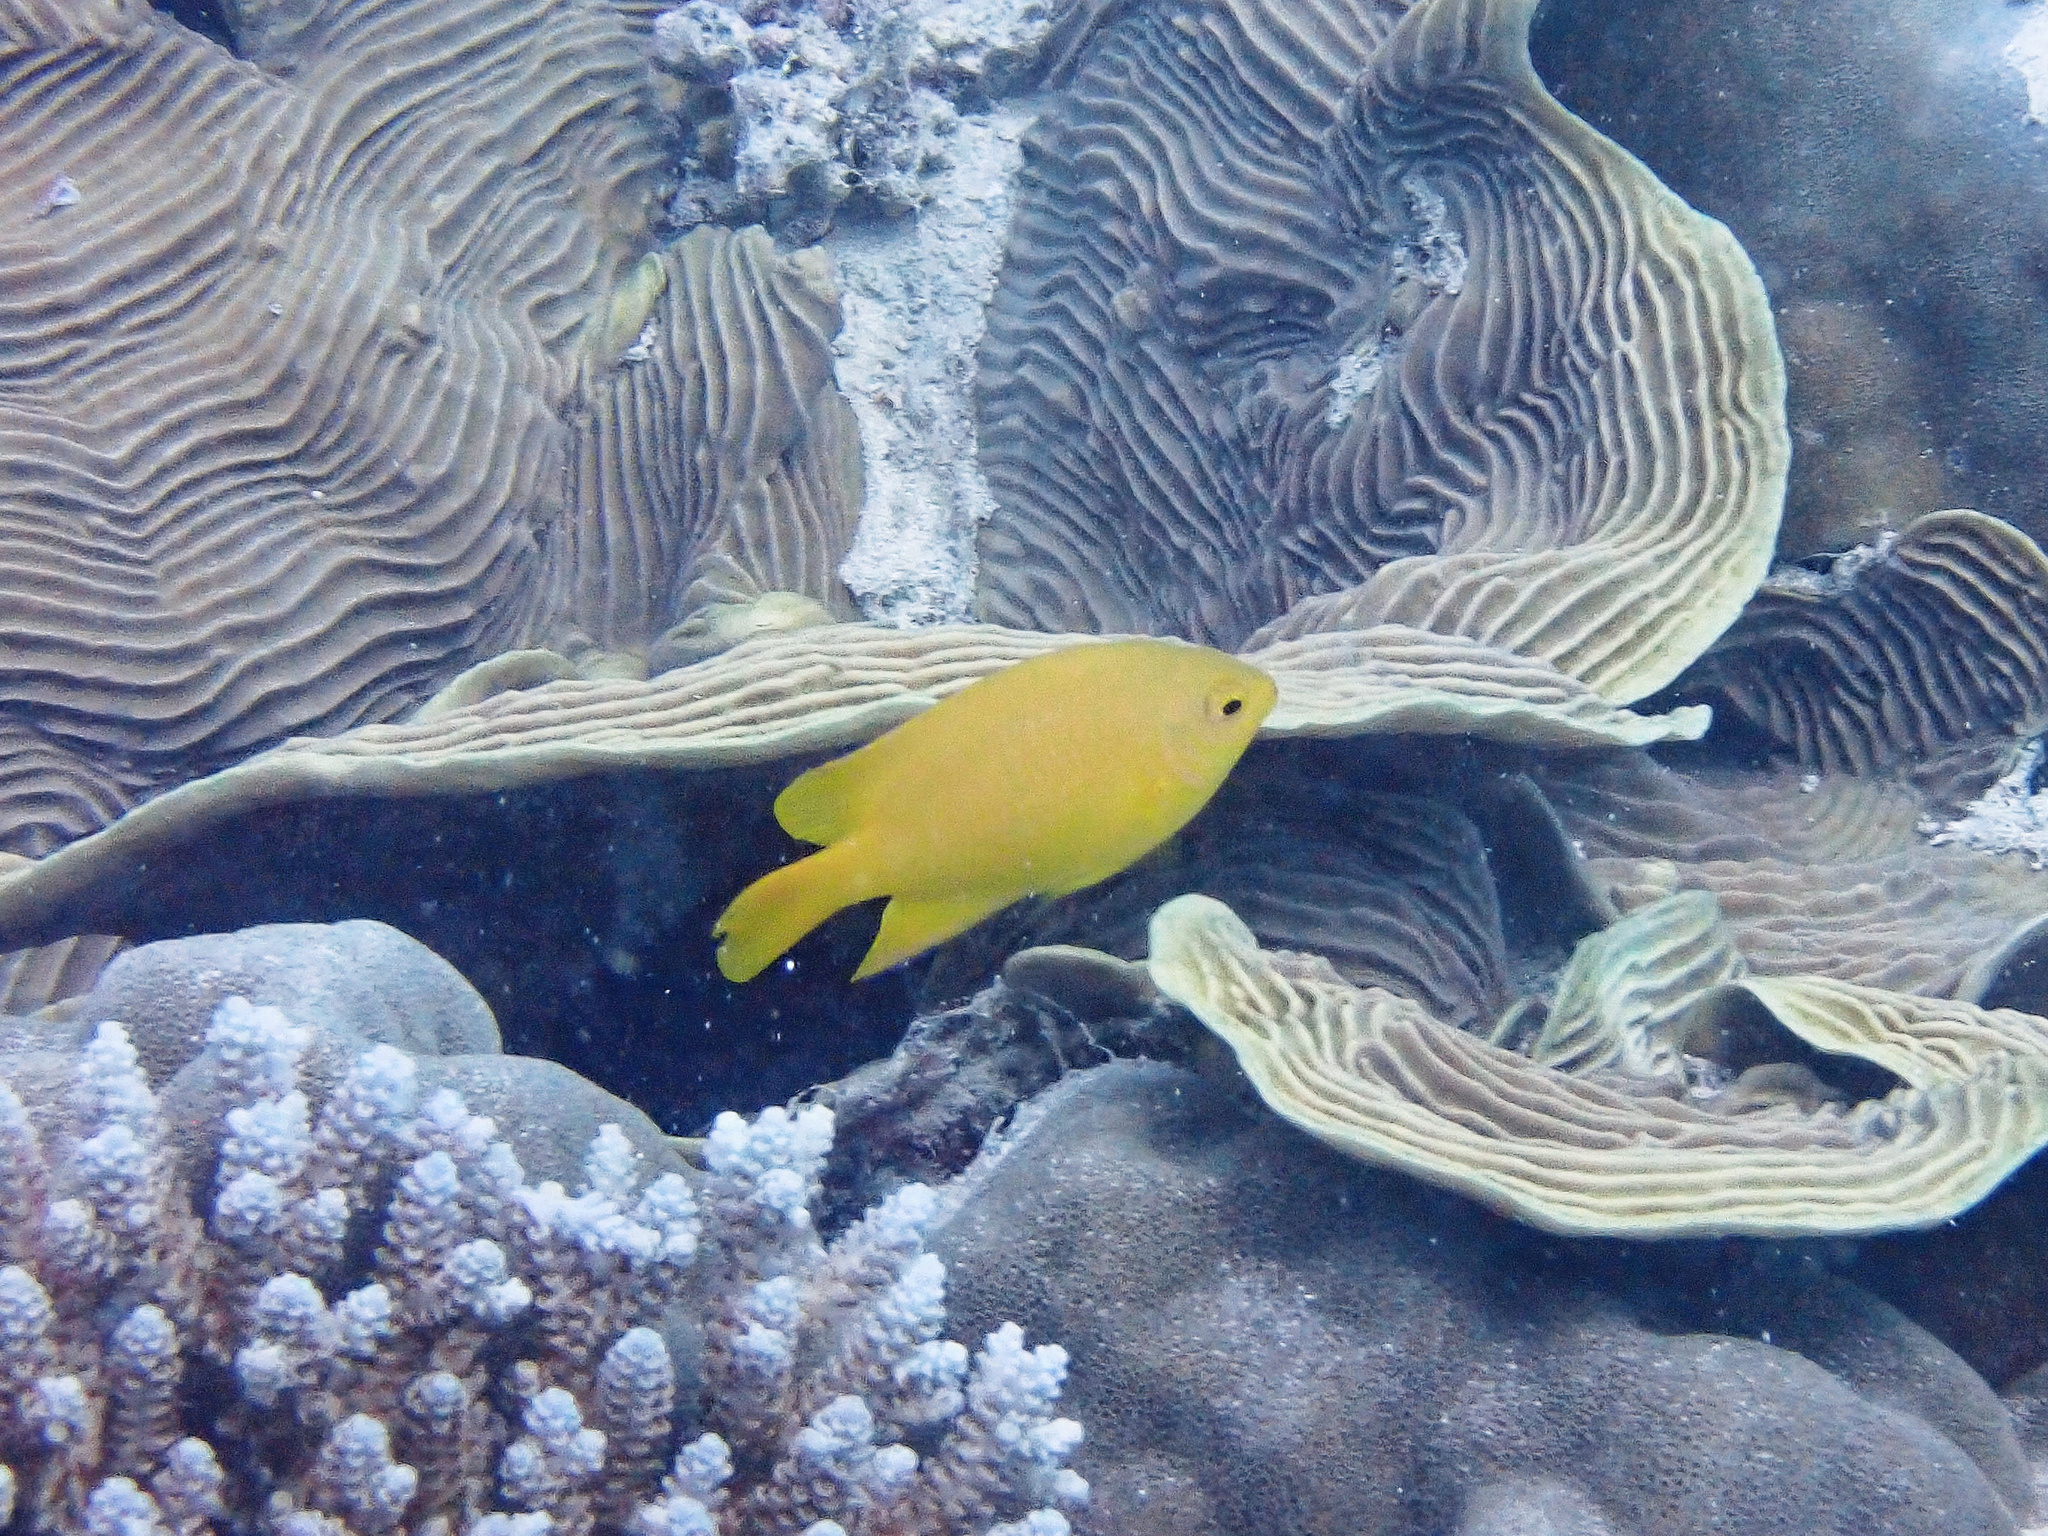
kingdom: Animalia
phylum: Chordata
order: Perciformes
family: Pomacentridae
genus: Pomacentrus
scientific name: Pomacentrus moluccensis
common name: Lemon damsel
